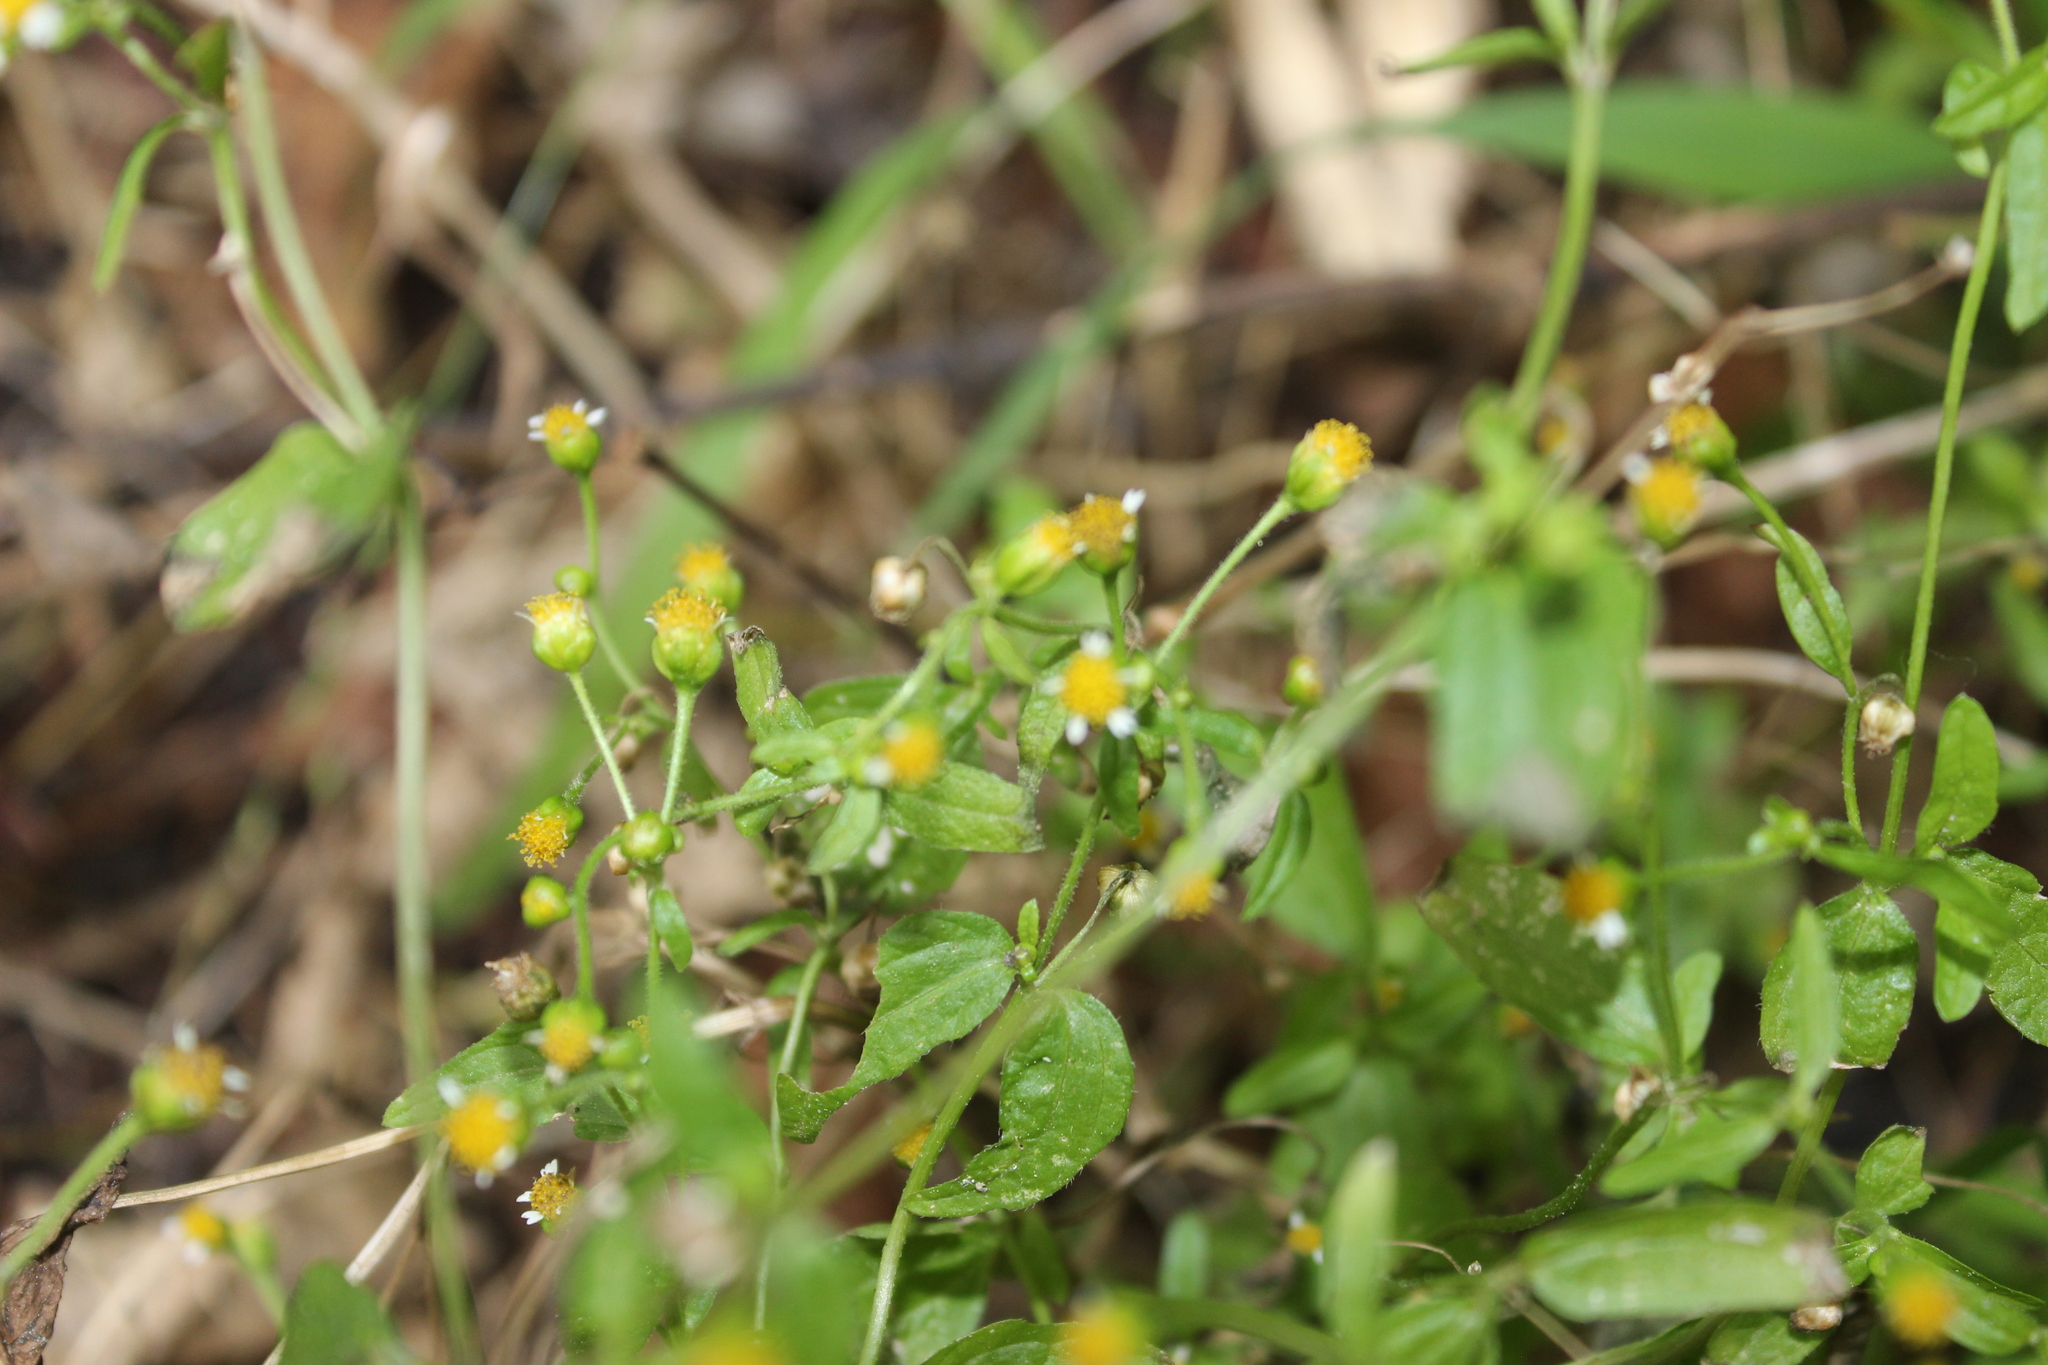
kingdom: Plantae
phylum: Tracheophyta
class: Magnoliopsida
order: Asterales
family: Asteraceae
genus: Galinsoga
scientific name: Galinsoga parviflora
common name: Gallant soldier
